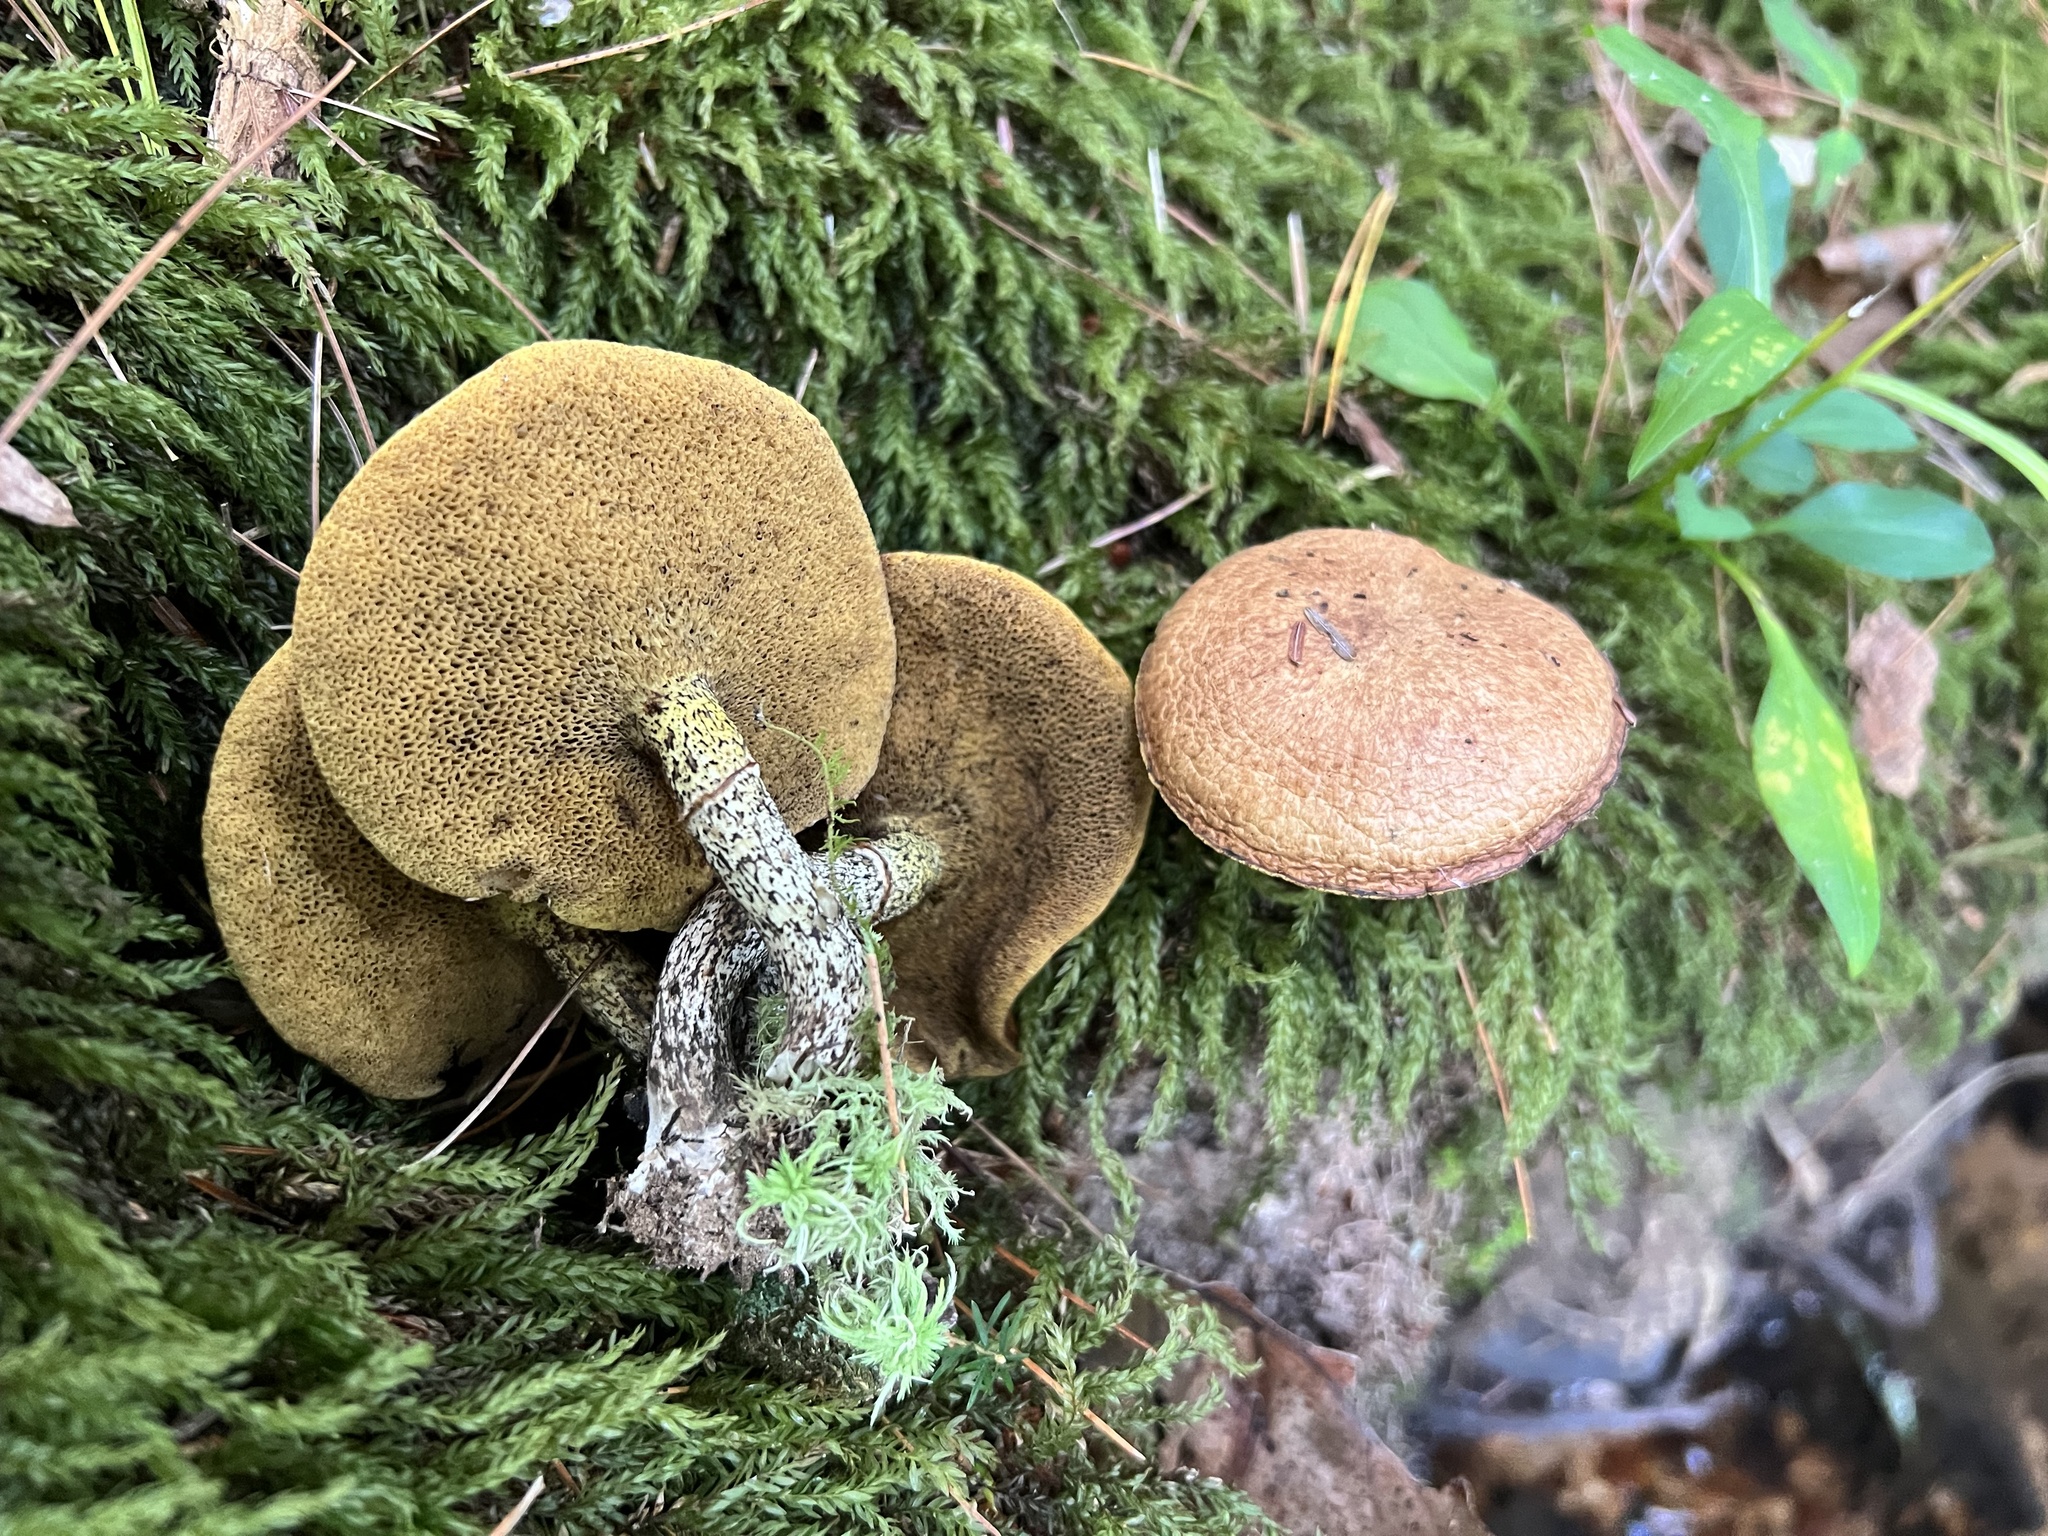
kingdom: Fungi
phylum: Basidiomycota
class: Agaricomycetes
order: Boletales
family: Suillaceae
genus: Suillus
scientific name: Suillus acidus
